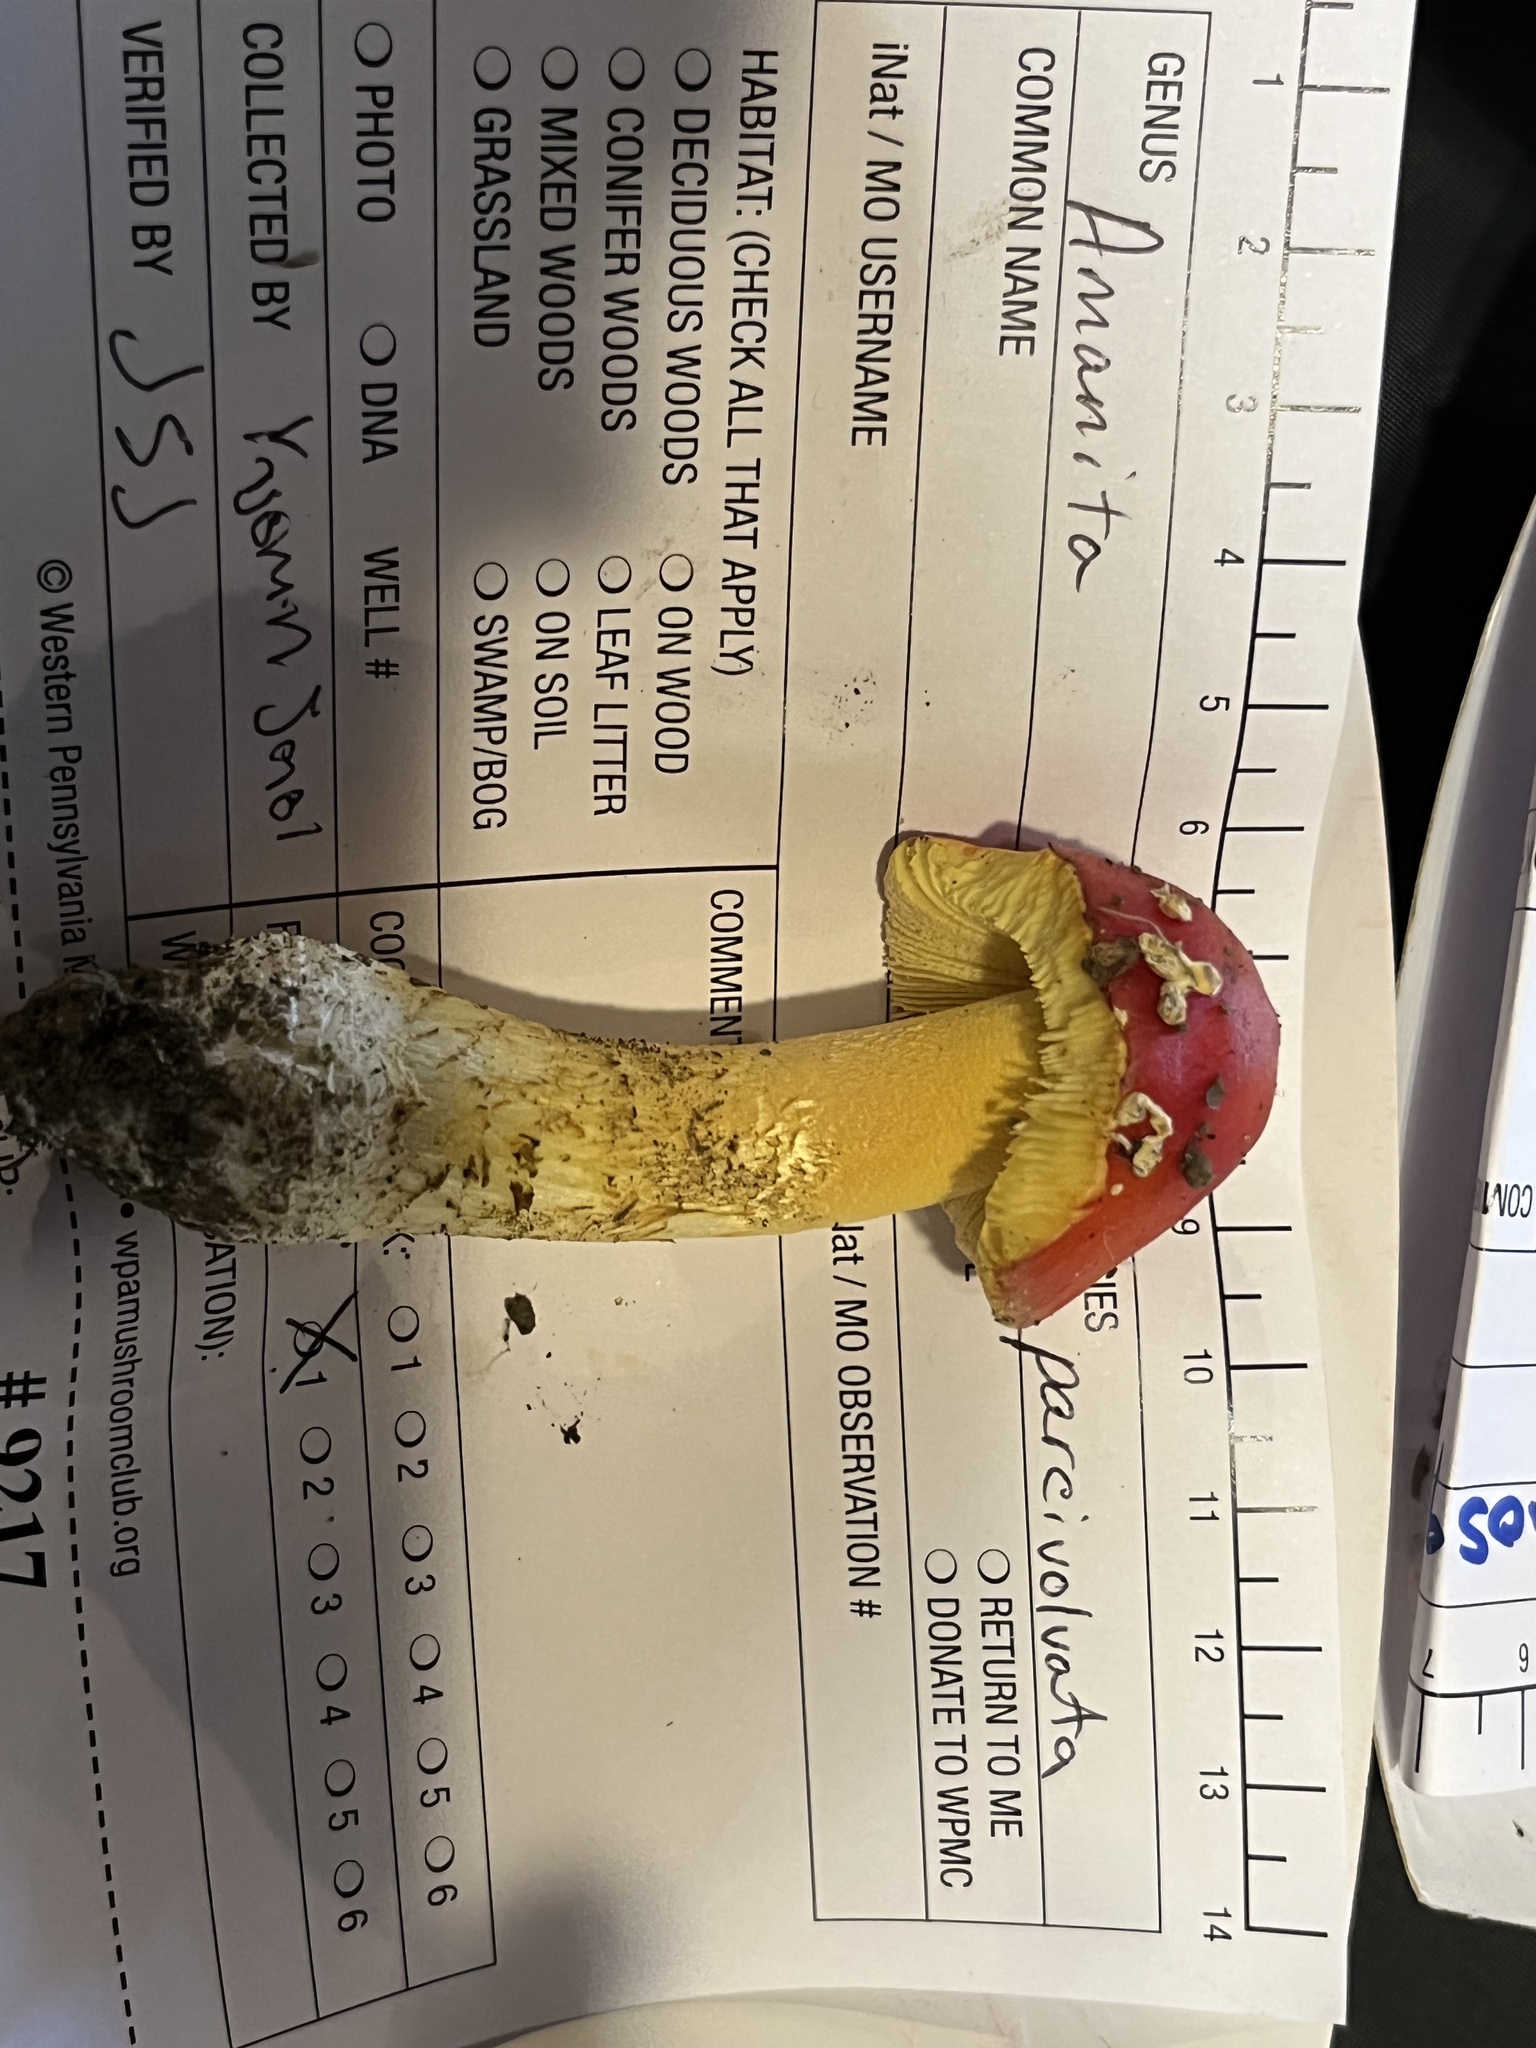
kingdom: Fungi
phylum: Basidiomycota
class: Agaricomycetes
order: Agaricales
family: Amanitaceae
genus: Amanita
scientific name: Amanita parcivolvata
